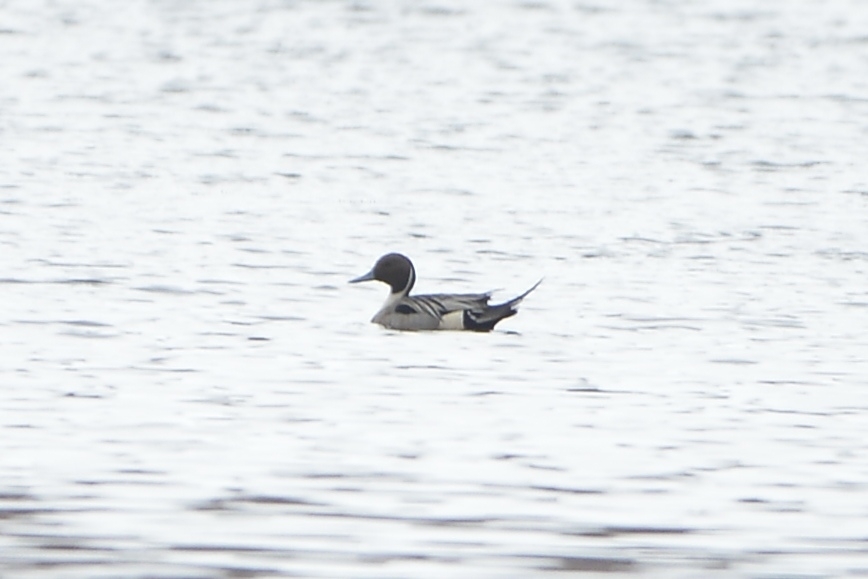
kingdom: Animalia
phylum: Chordata
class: Aves
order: Anseriformes
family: Anatidae
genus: Anas
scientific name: Anas acuta
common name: Northern pintail
